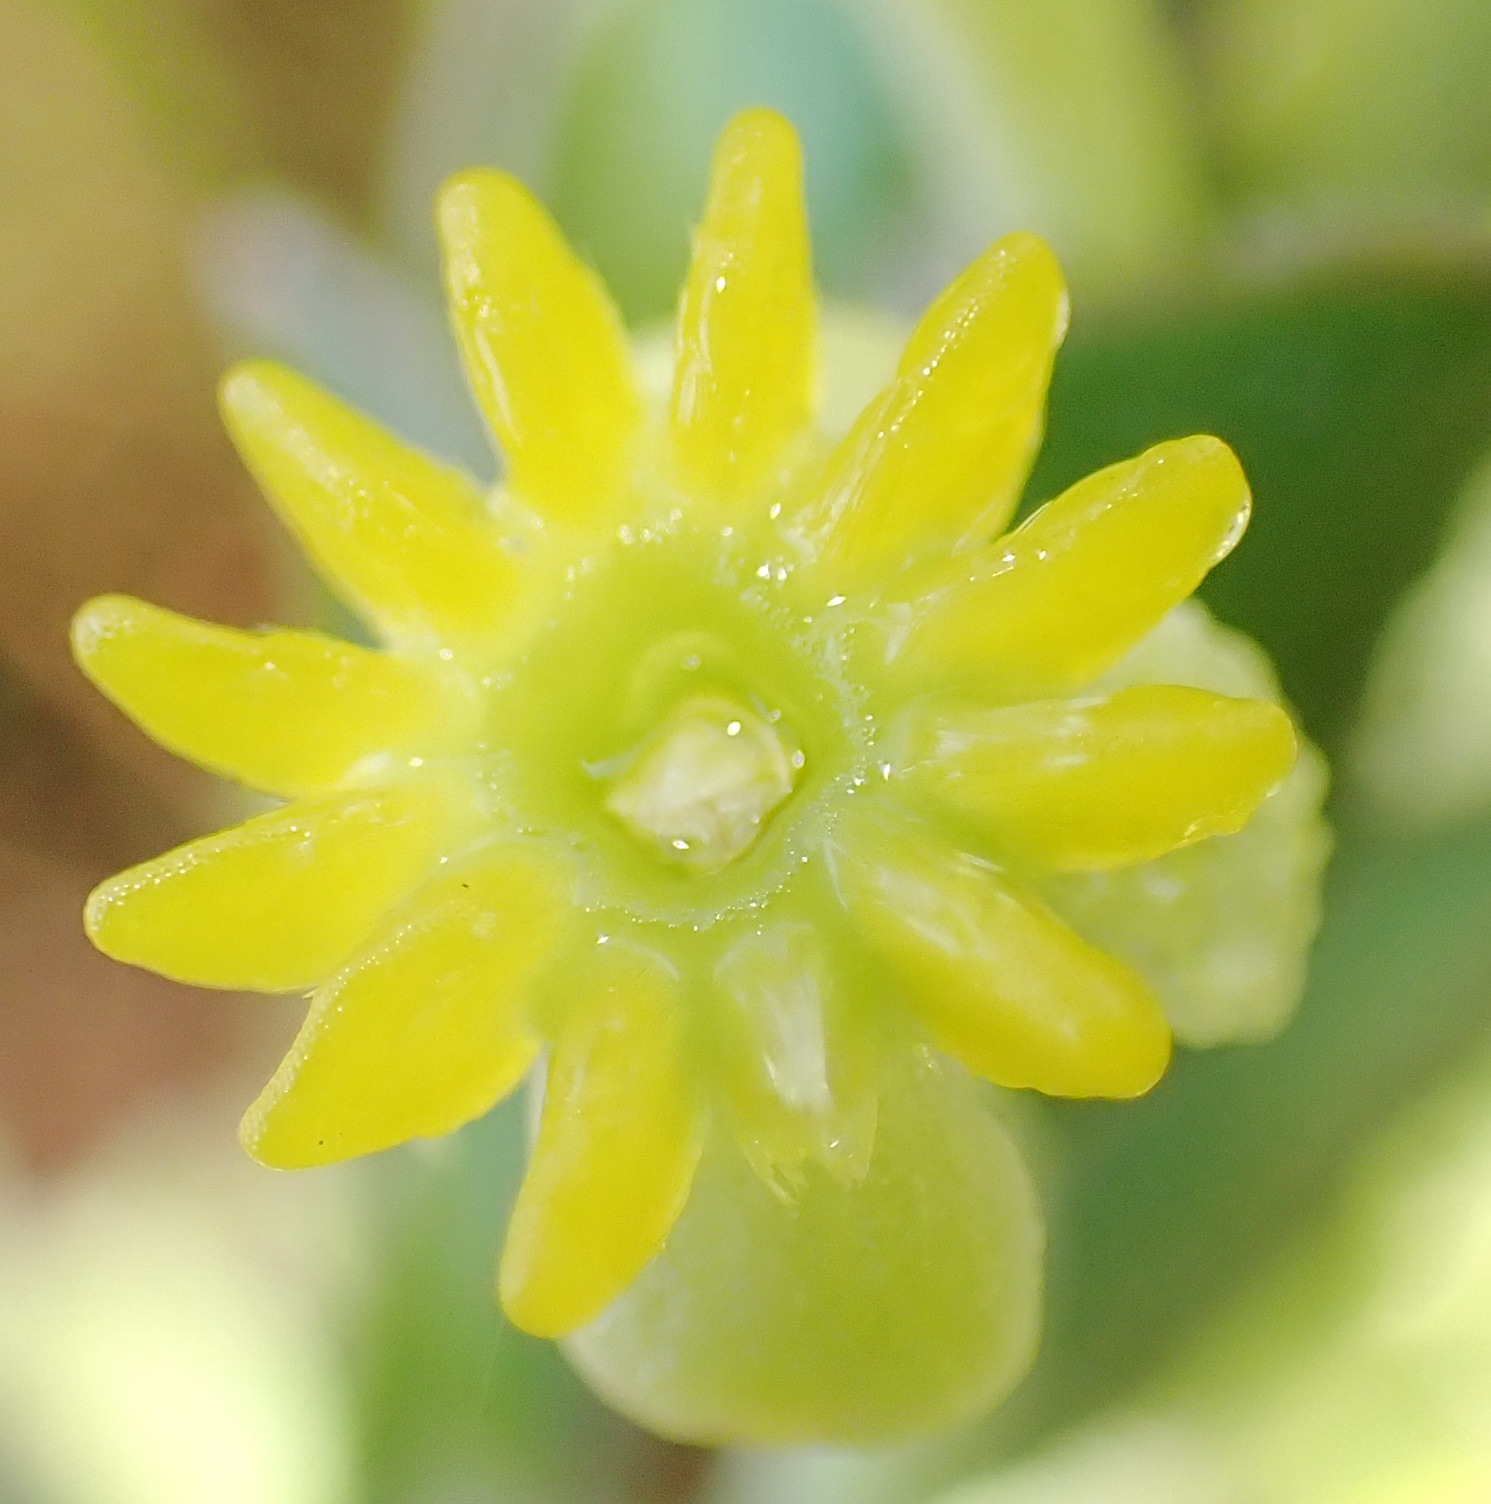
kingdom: Plantae
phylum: Tracheophyta
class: Magnoliopsida
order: Malvales
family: Thymelaeaceae
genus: Struthiola
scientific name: Struthiola argentea
